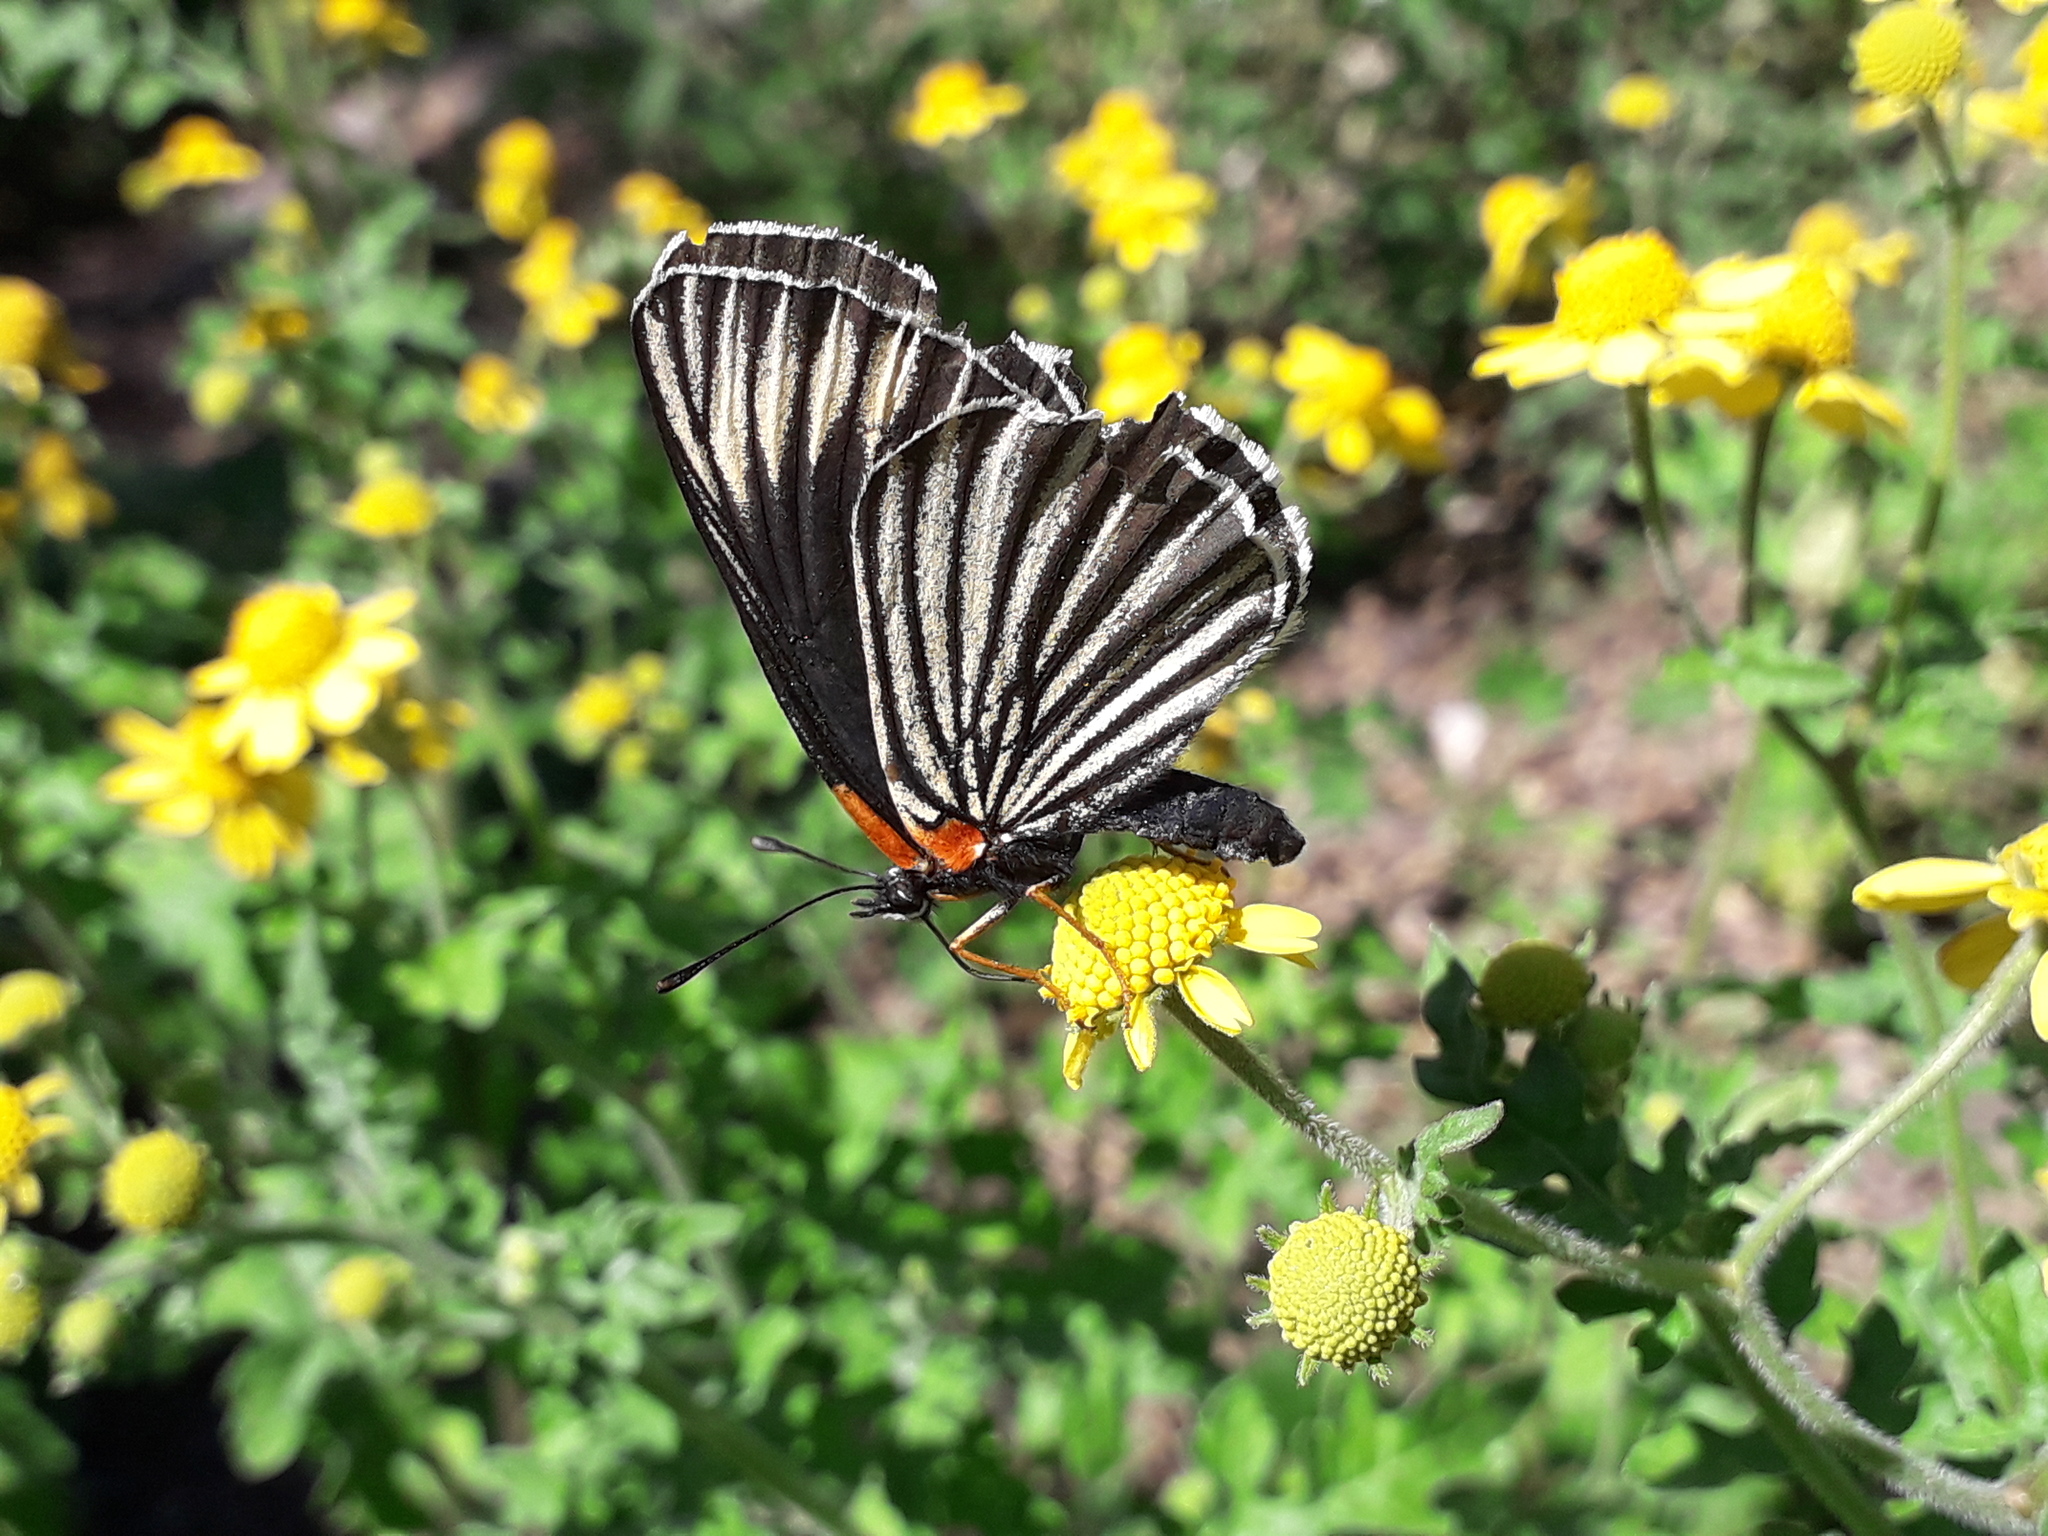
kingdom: Animalia
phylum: Arthropoda
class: Insecta
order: Lepidoptera
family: Nymphalidae
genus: Chlosyne
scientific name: Chlosyne ehrenbergii
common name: White-rayed patch
